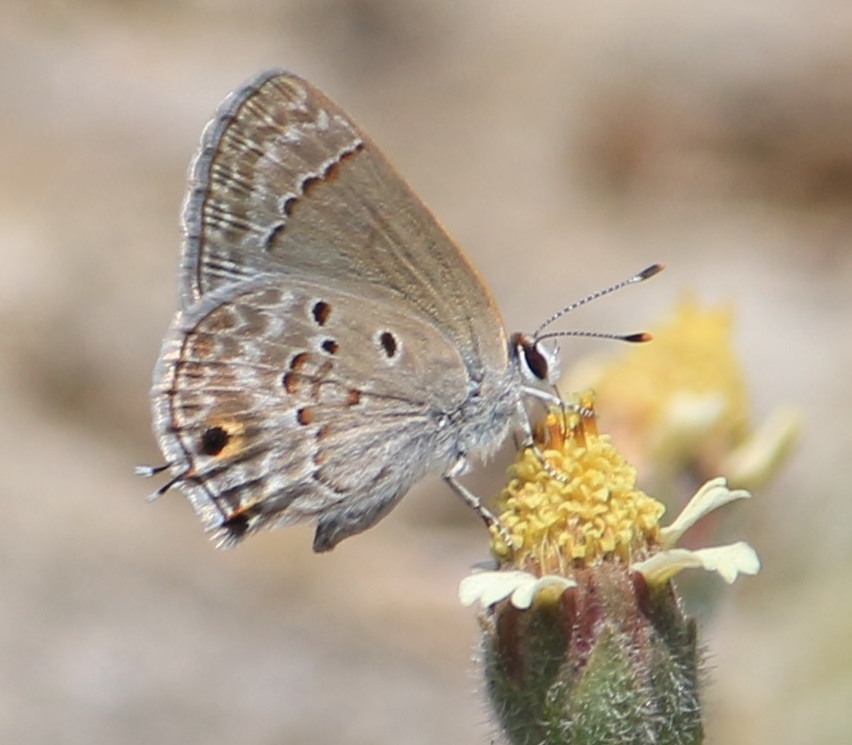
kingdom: Animalia
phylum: Arthropoda
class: Insecta
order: Lepidoptera
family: Lycaenidae
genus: Callicista
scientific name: Callicista columella
